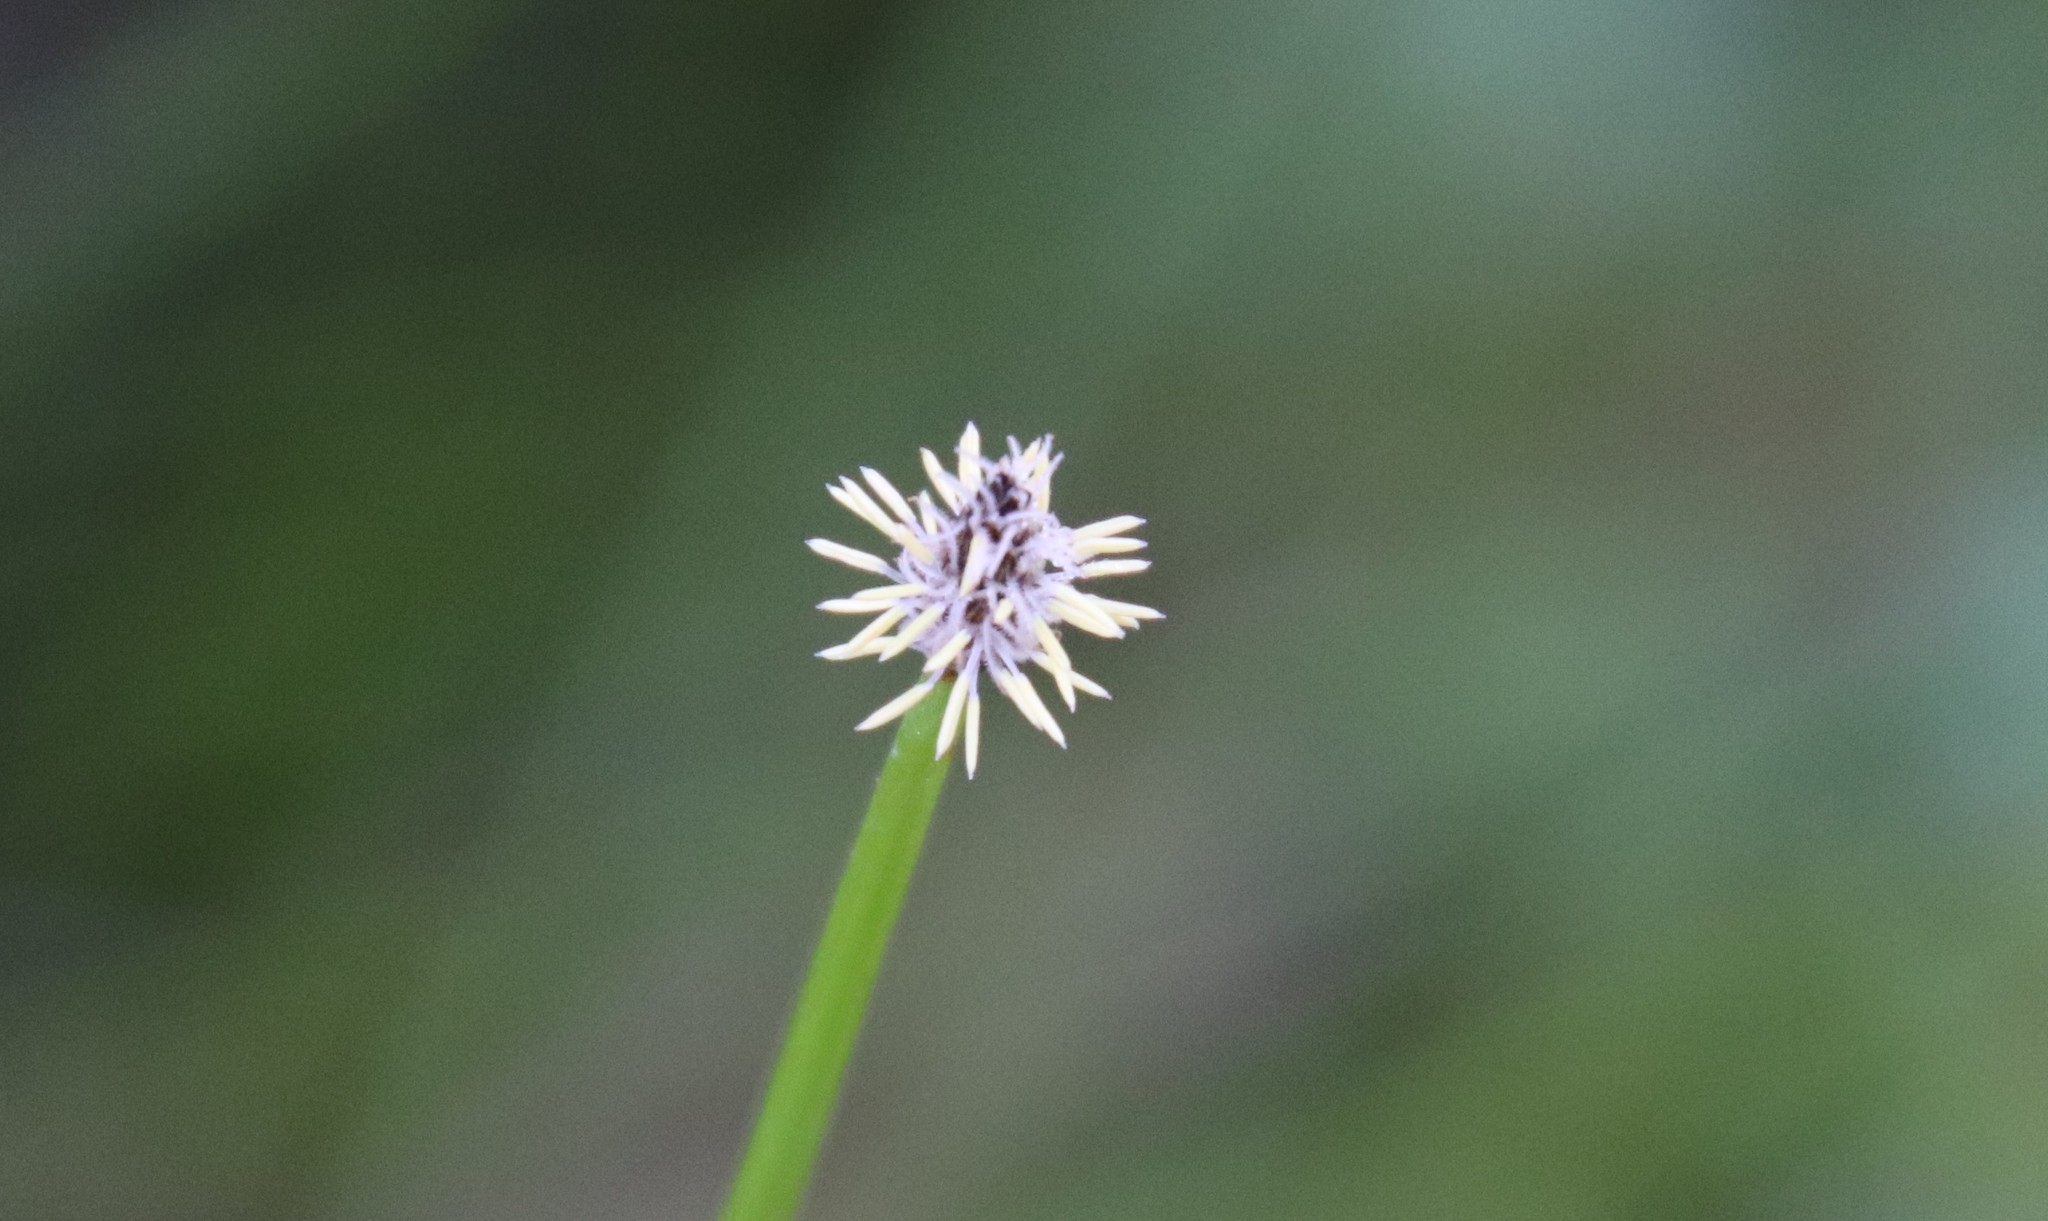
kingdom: Plantae
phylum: Tracheophyta
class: Liliopsida
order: Poales
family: Cyperaceae
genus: Eleocharis
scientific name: Eleocharis macrostachya
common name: Pale spikerush
